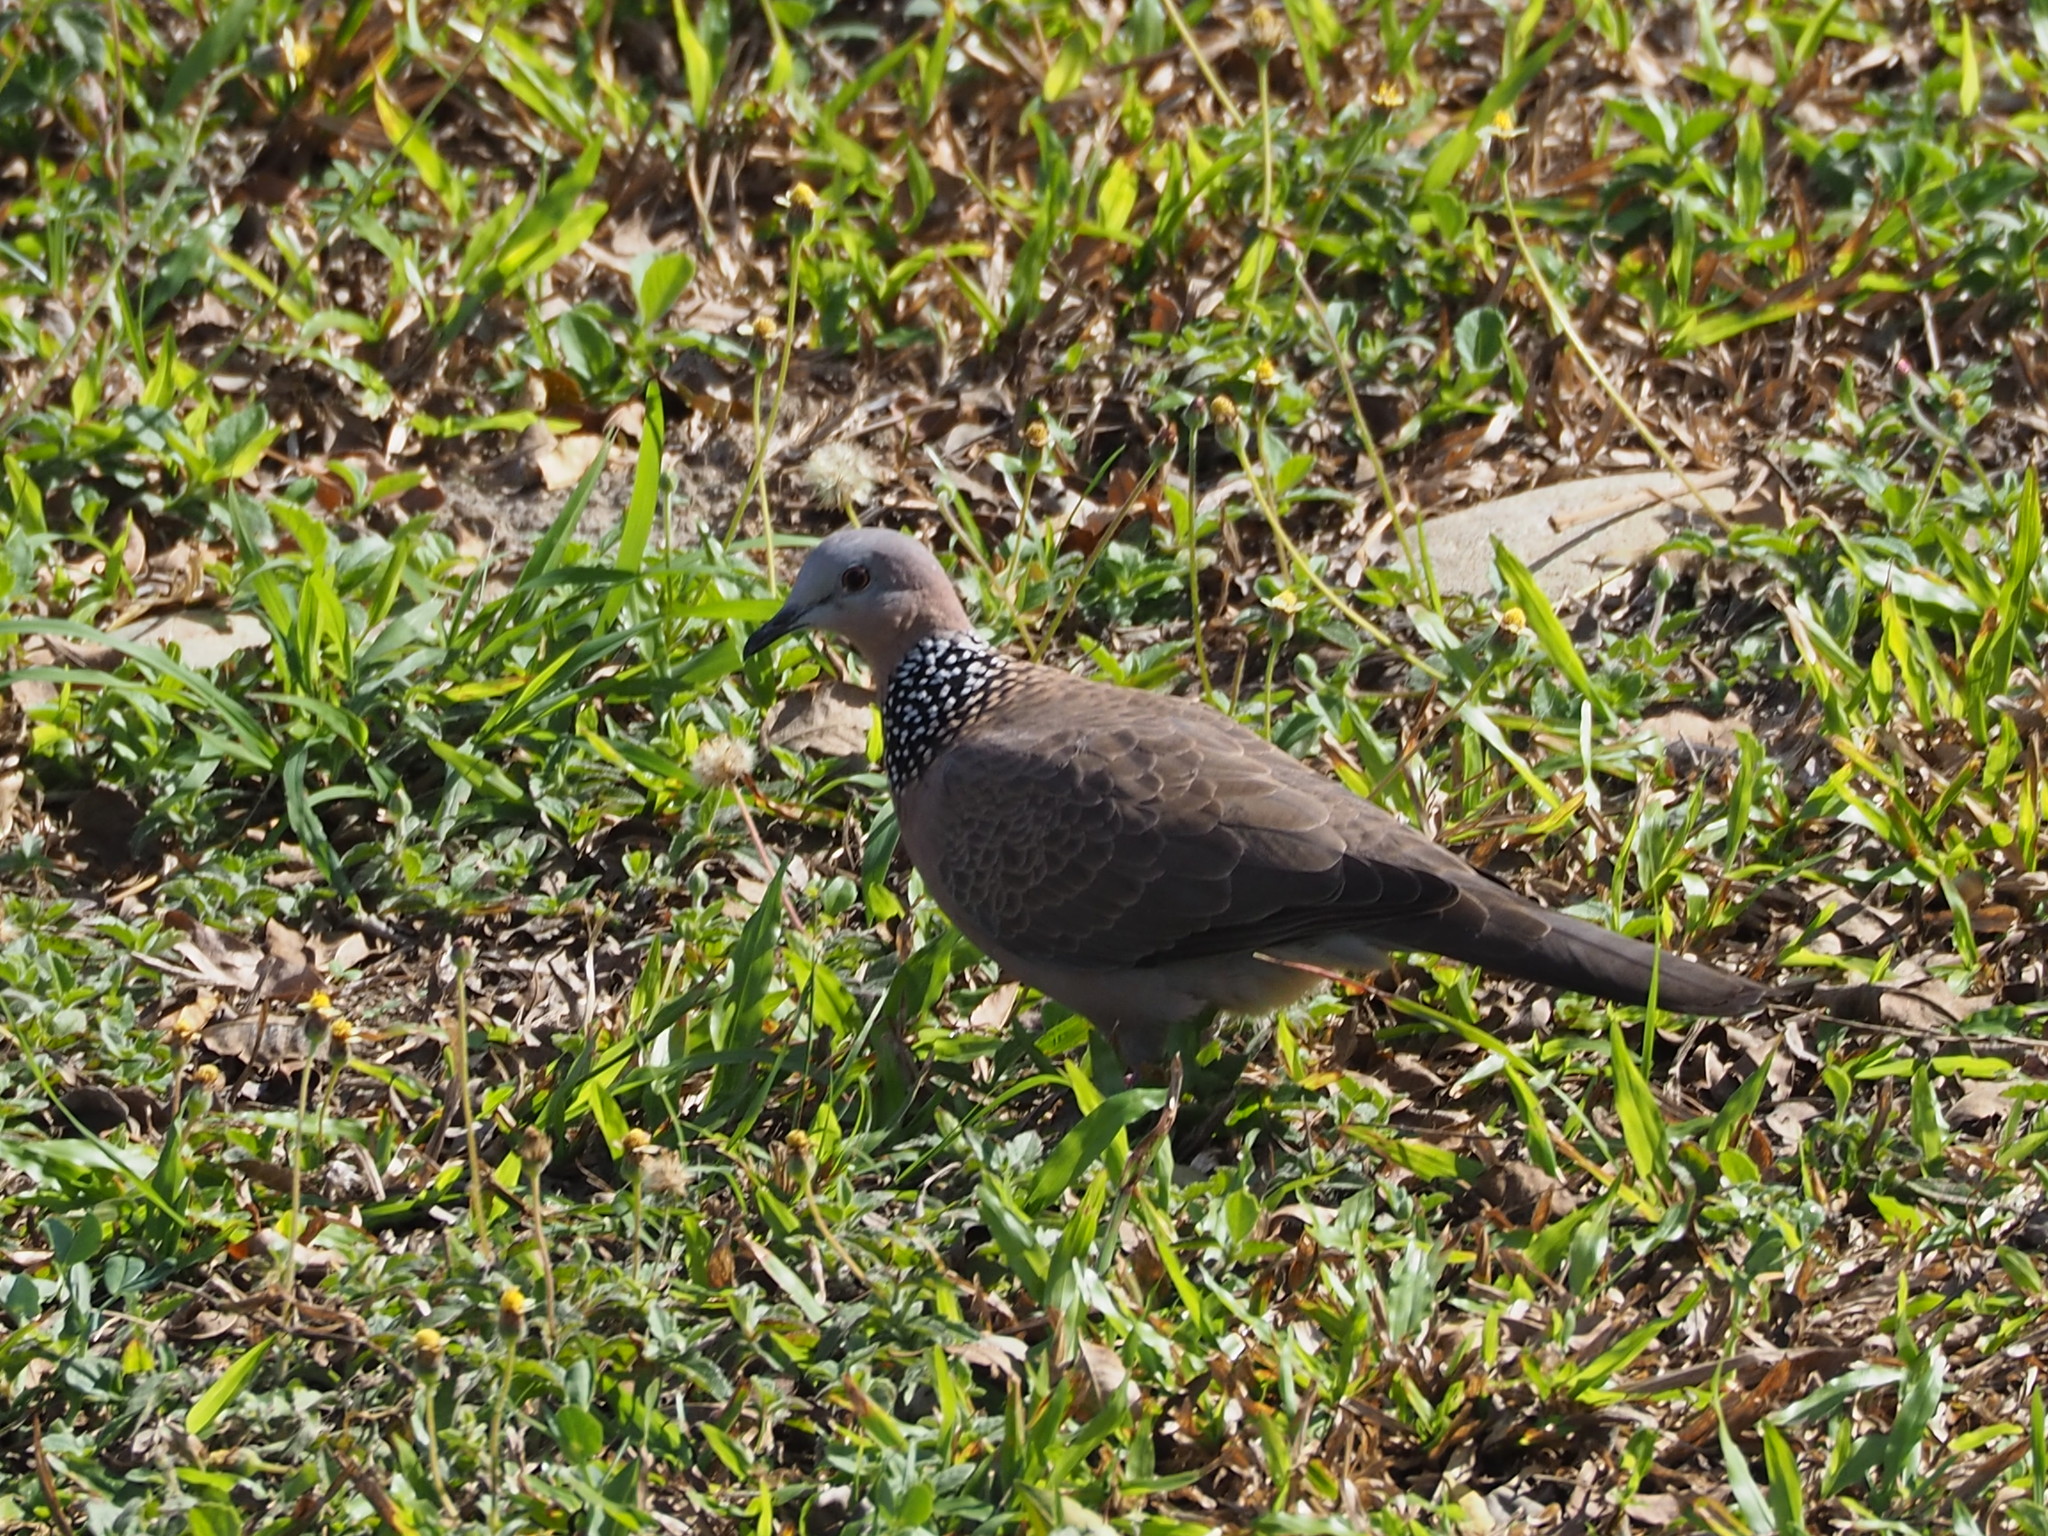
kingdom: Animalia
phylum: Chordata
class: Aves
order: Columbiformes
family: Columbidae
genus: Spilopelia
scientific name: Spilopelia chinensis
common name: Spotted dove
